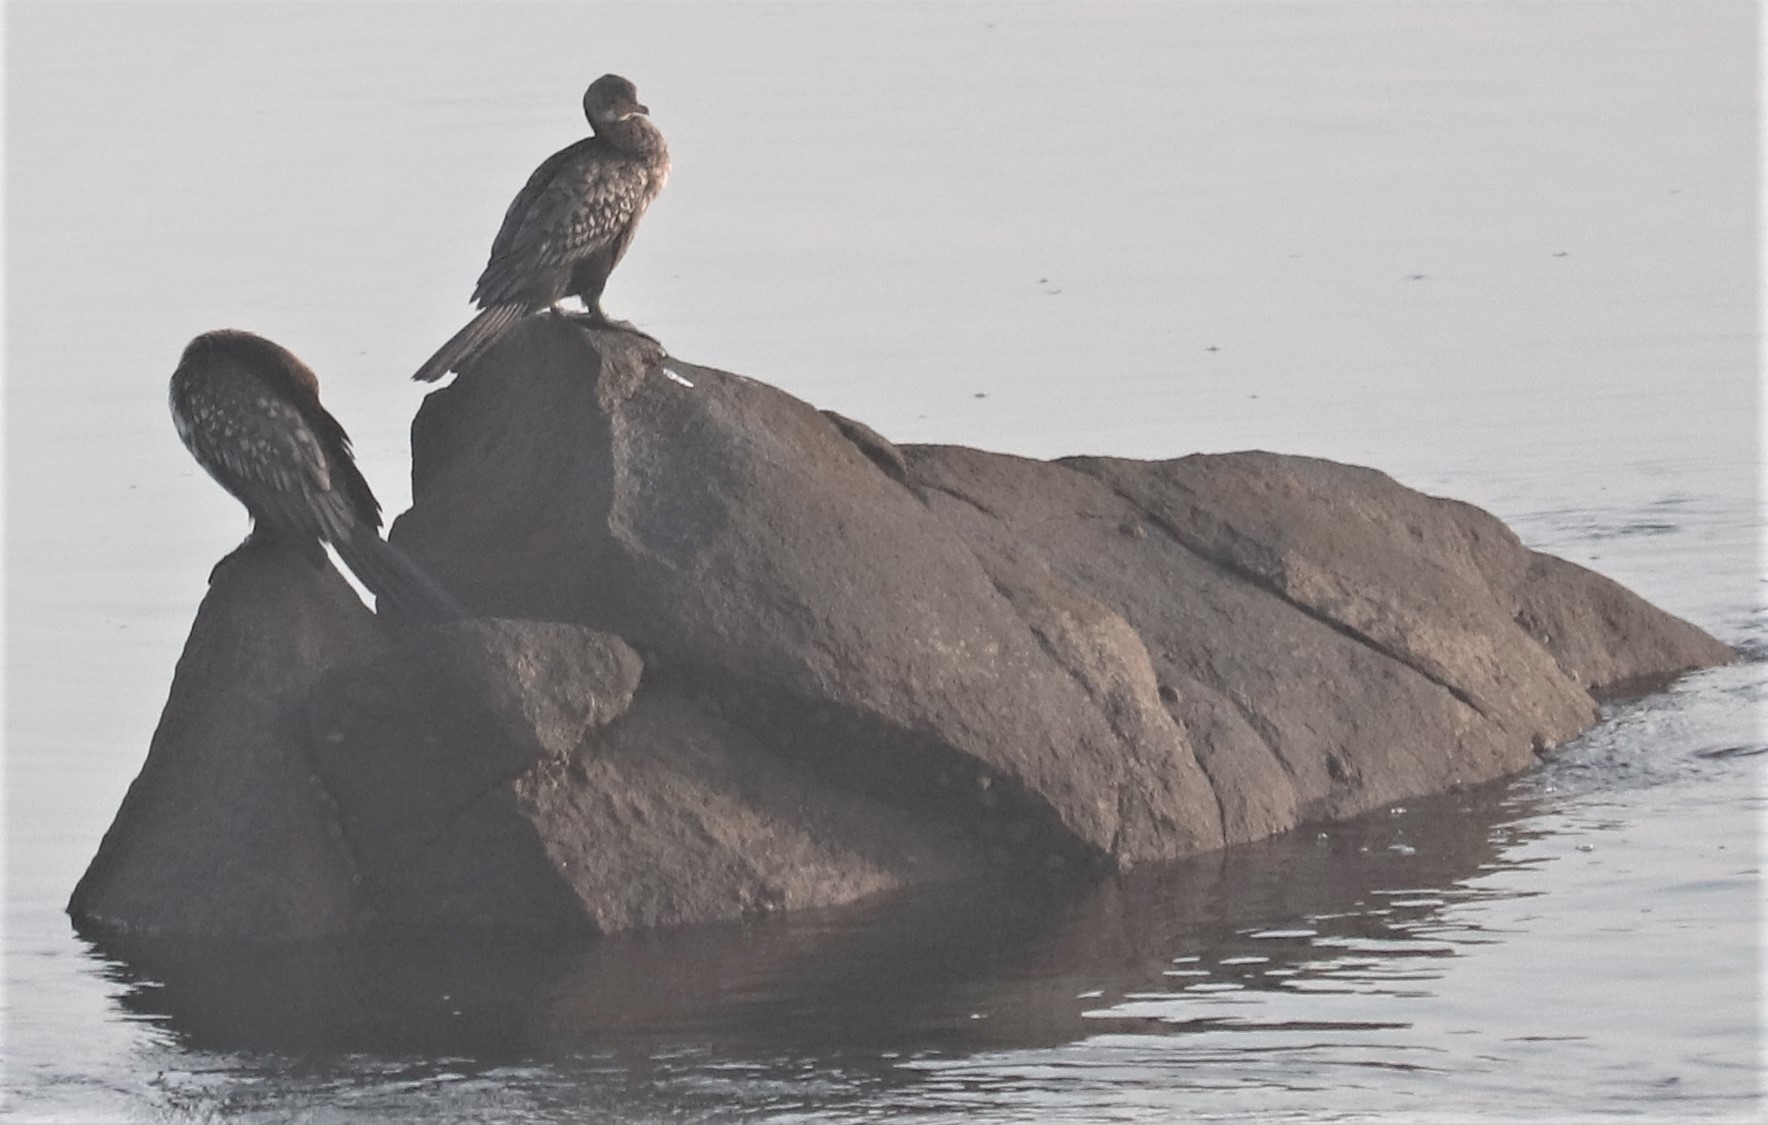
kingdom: Animalia
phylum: Chordata
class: Aves
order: Suliformes
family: Phalacrocoracidae
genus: Microcarbo
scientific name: Microcarbo africanus
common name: Long-tailed cormorant
